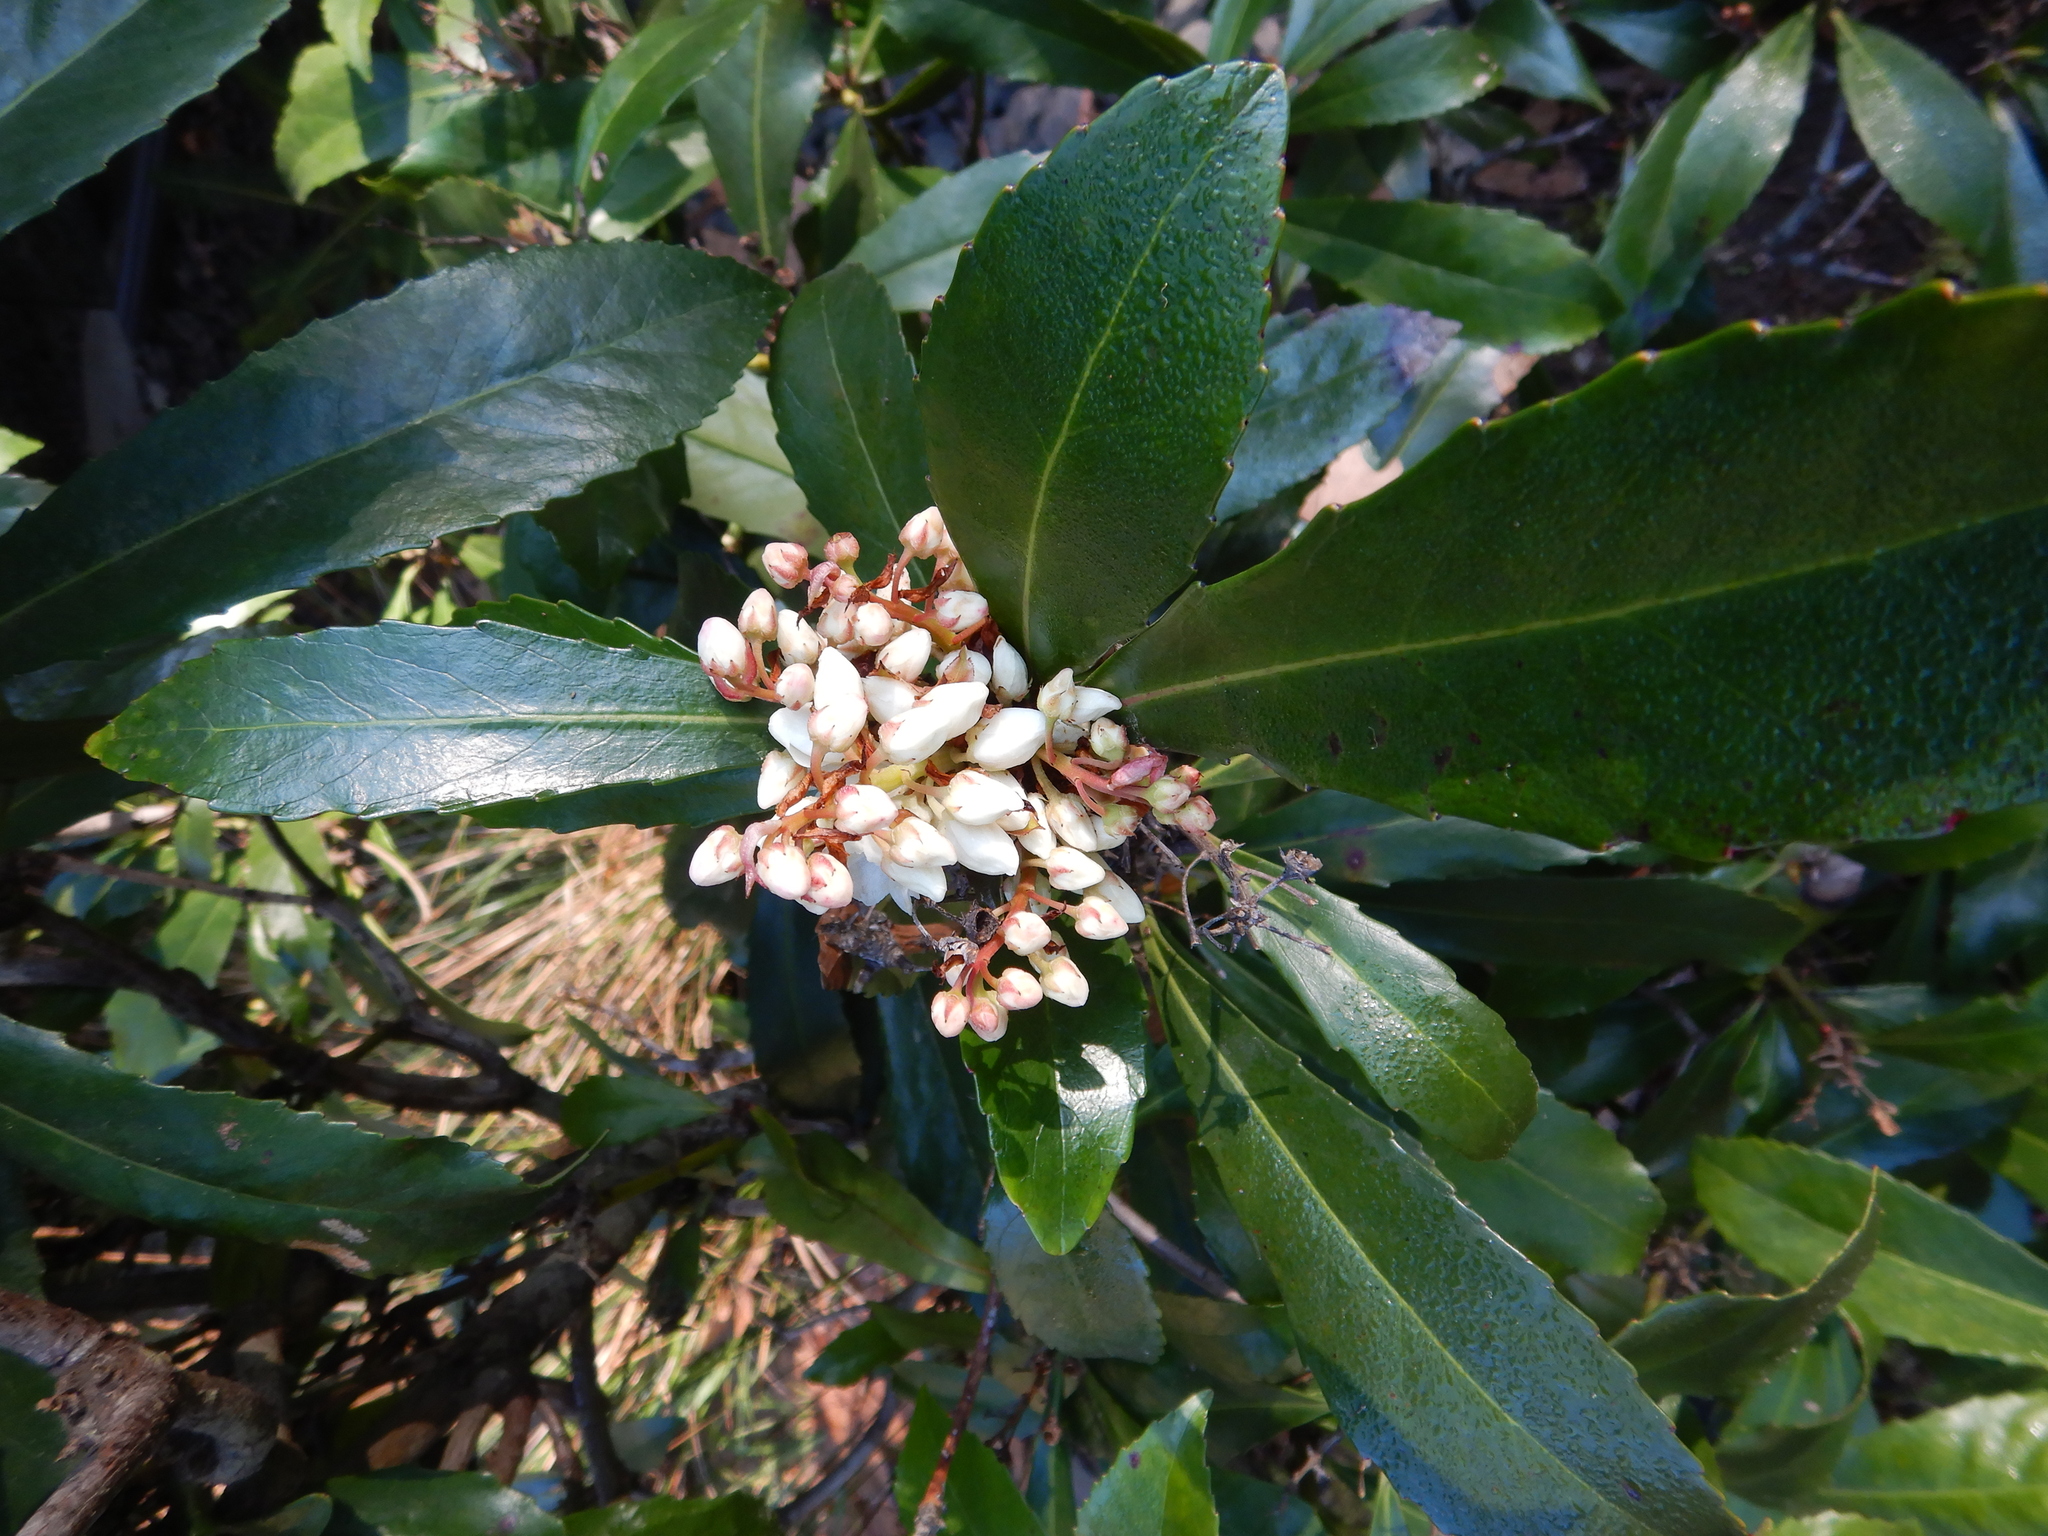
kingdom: Plantae
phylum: Tracheophyta
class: Magnoliopsida
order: Escalloniales
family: Escalloniaceae
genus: Anopterus
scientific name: Anopterus glandulosus
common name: Tasmanian-laurel
